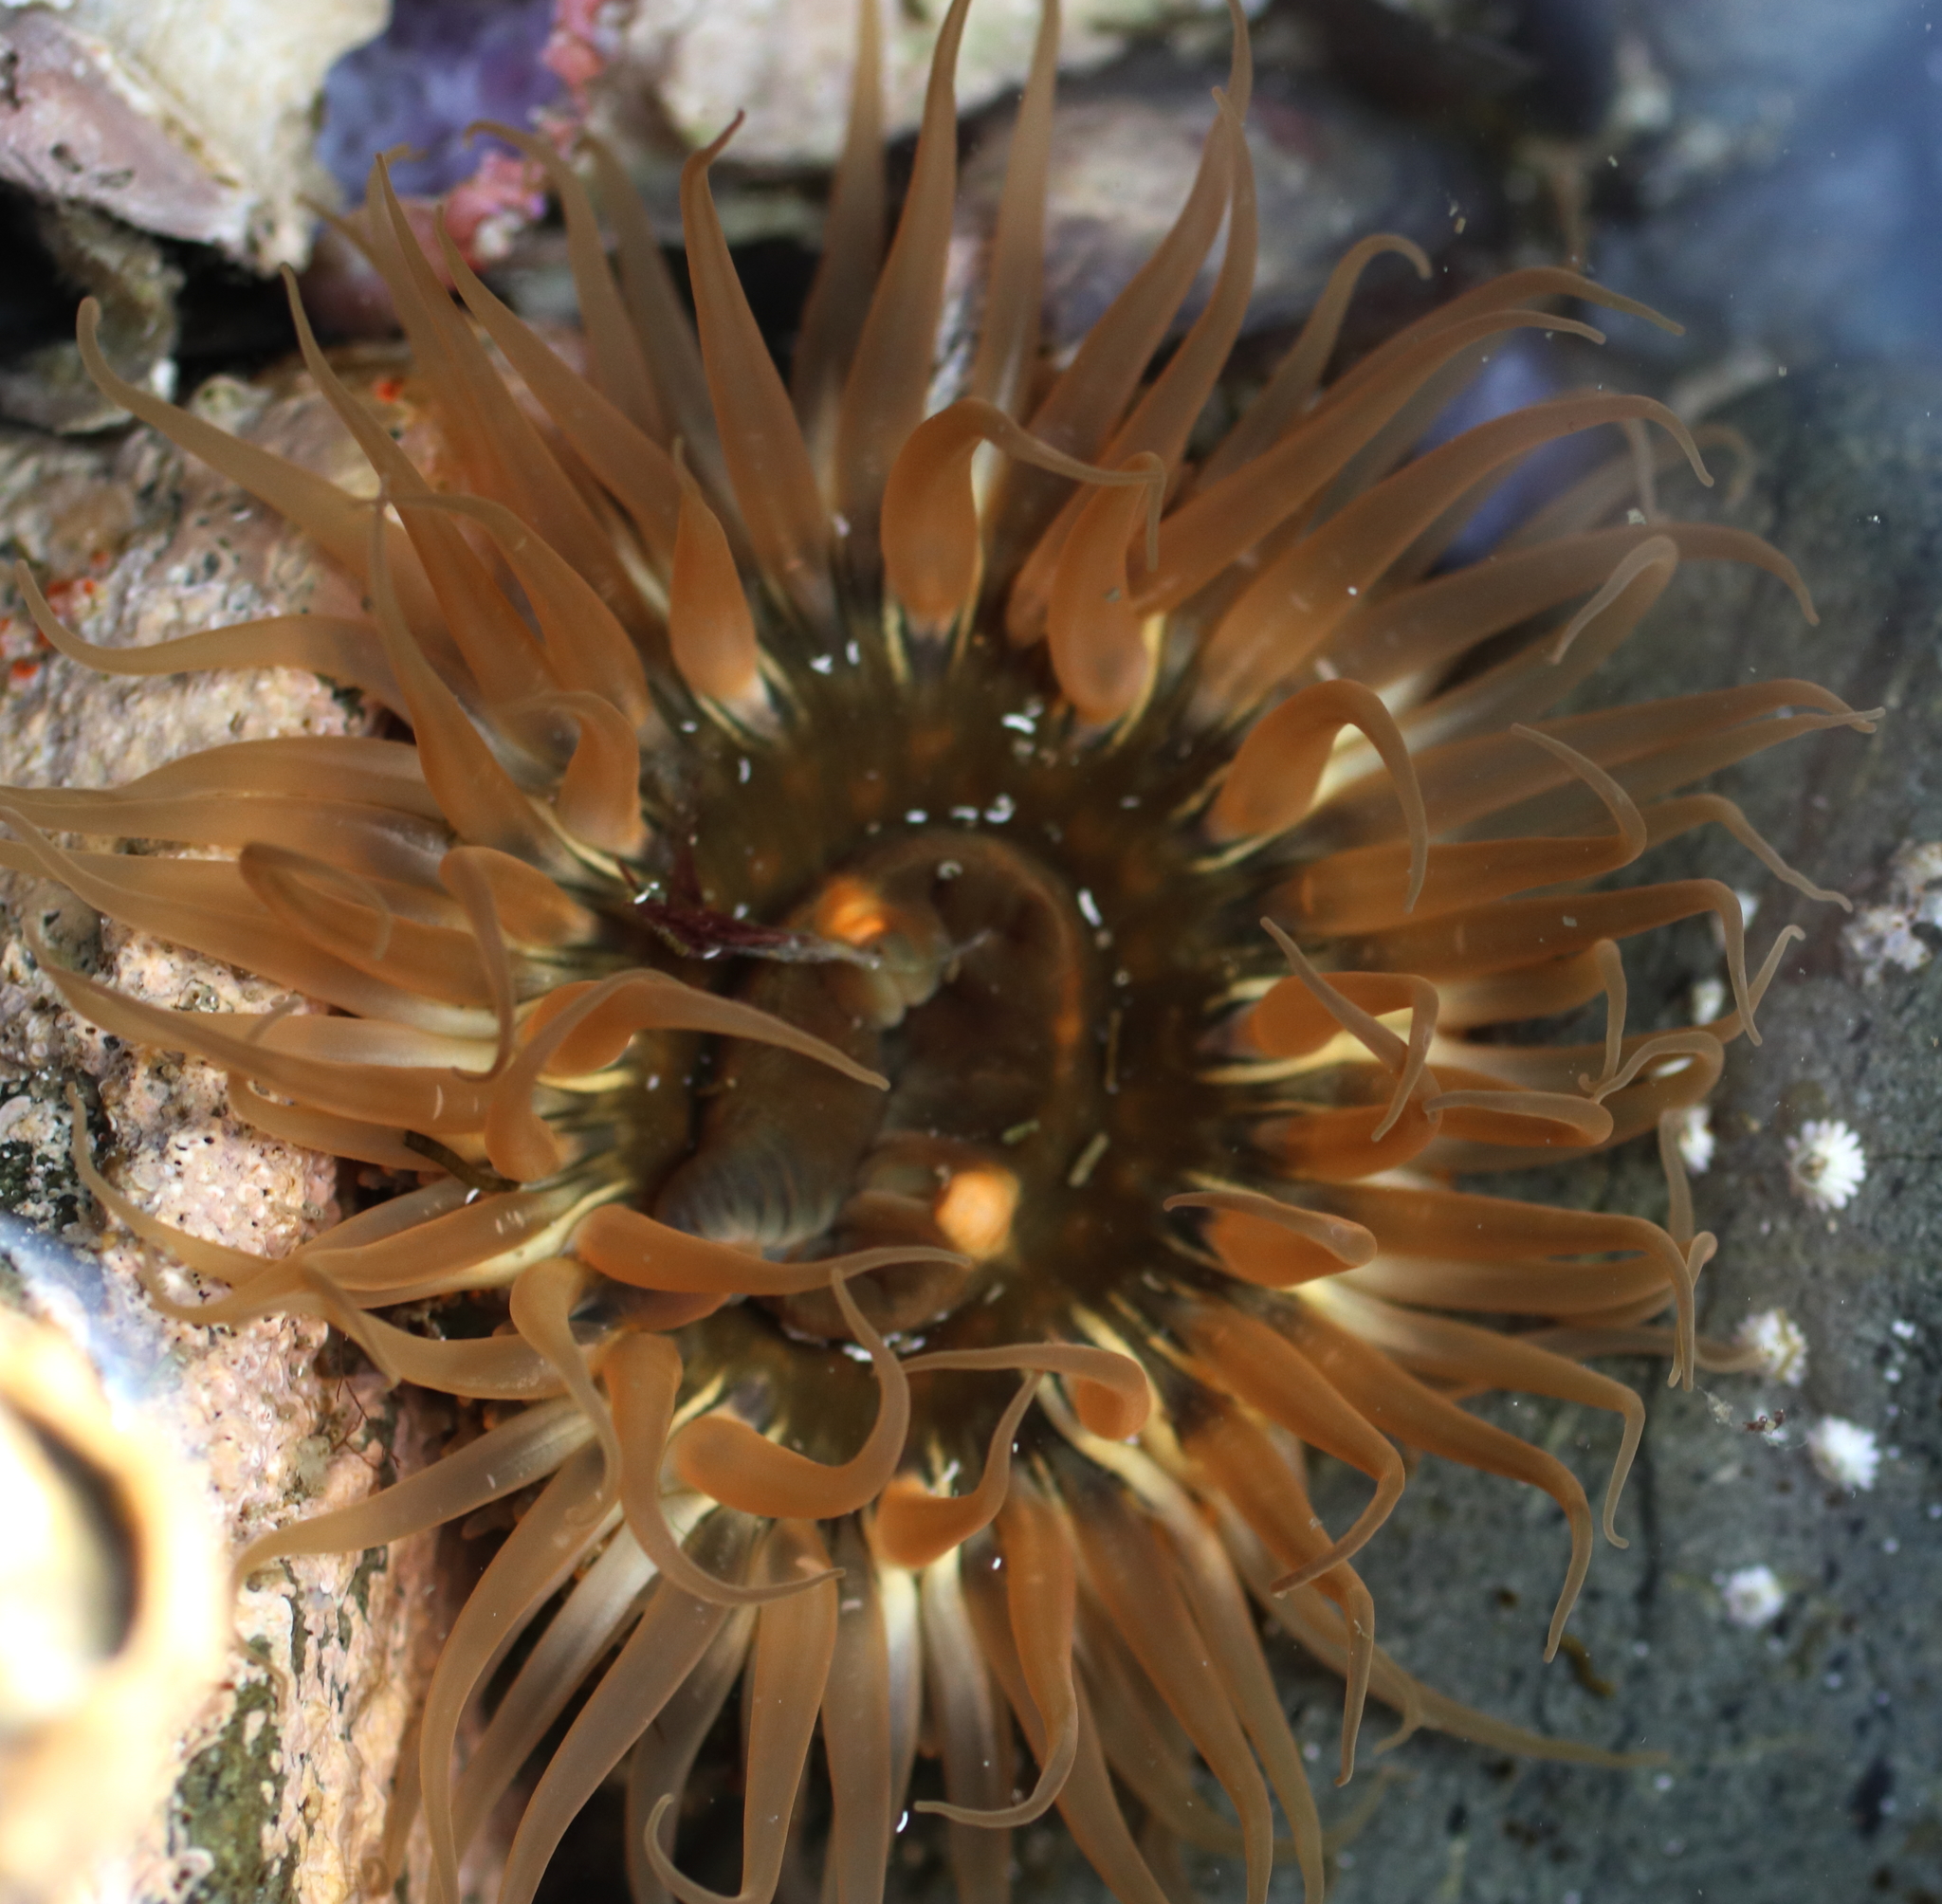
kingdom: Animalia
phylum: Cnidaria
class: Anthozoa
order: Actiniaria
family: Actiniidae
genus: Anthopleura
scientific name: Anthopleura artemisia
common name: Buried sea anemone
